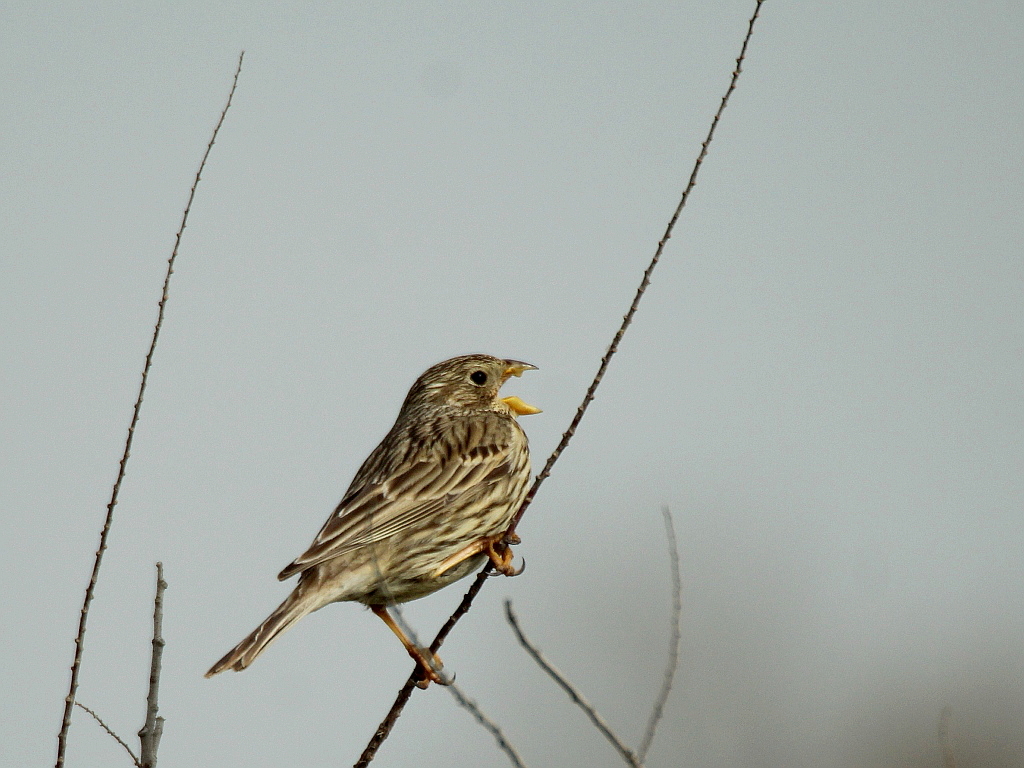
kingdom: Animalia
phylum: Chordata
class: Aves
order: Passeriformes
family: Emberizidae
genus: Emberiza
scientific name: Emberiza calandra
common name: Corn bunting
